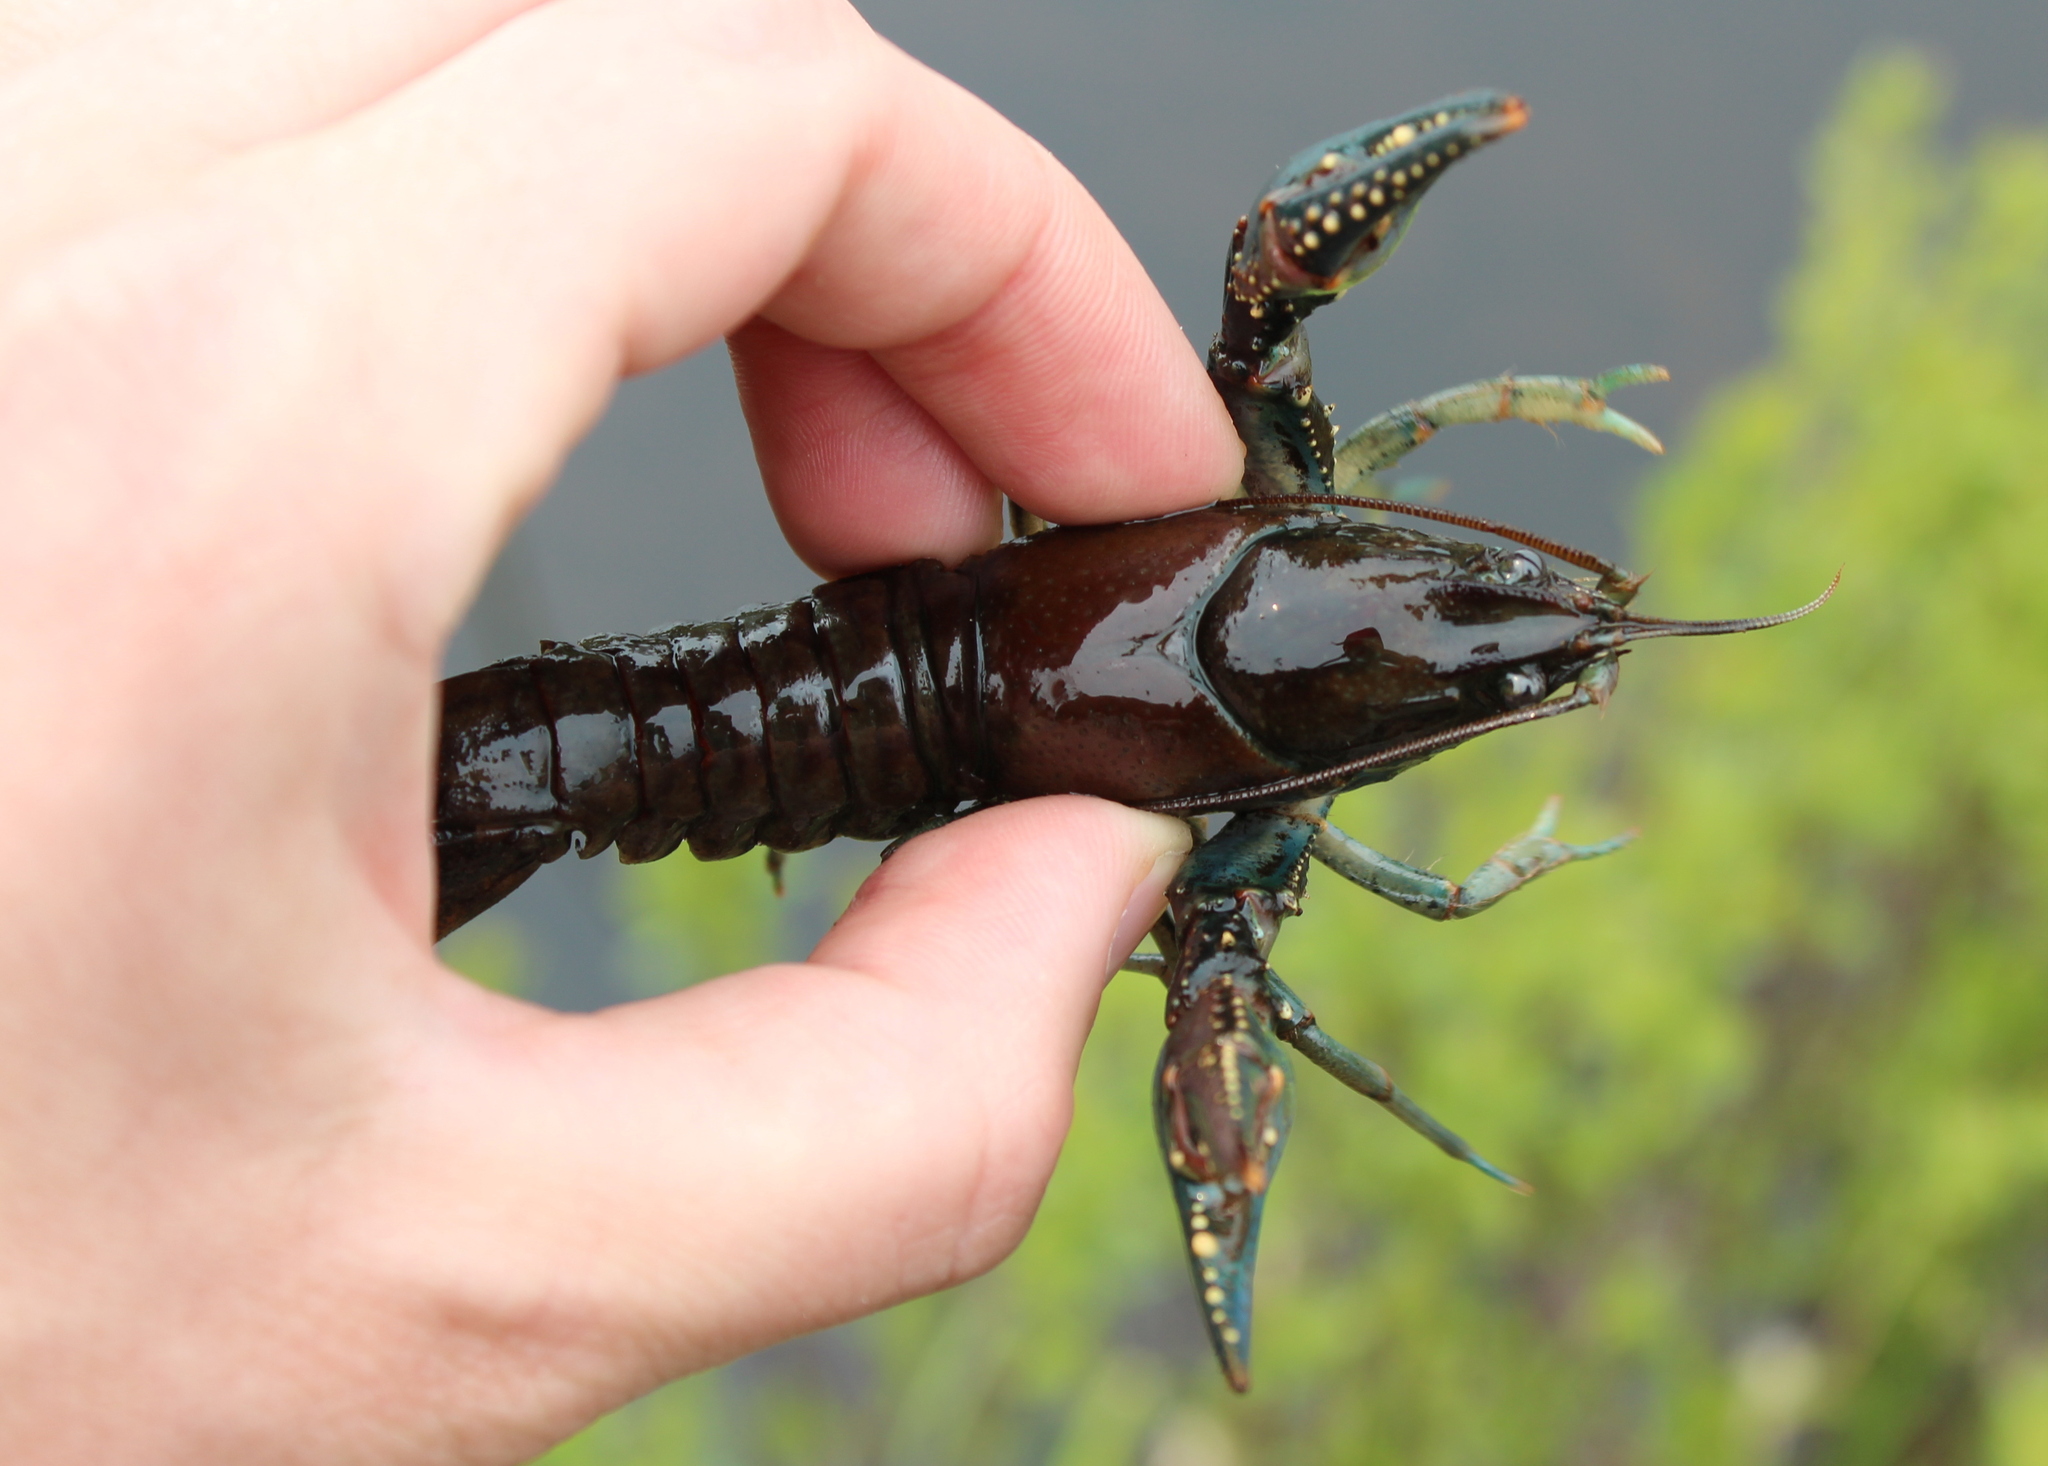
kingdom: Animalia
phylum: Arthropoda
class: Malacostraca
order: Decapoda
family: Cambaridae
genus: Faxonius
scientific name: Faxonius virilis
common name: Virile crayfish
